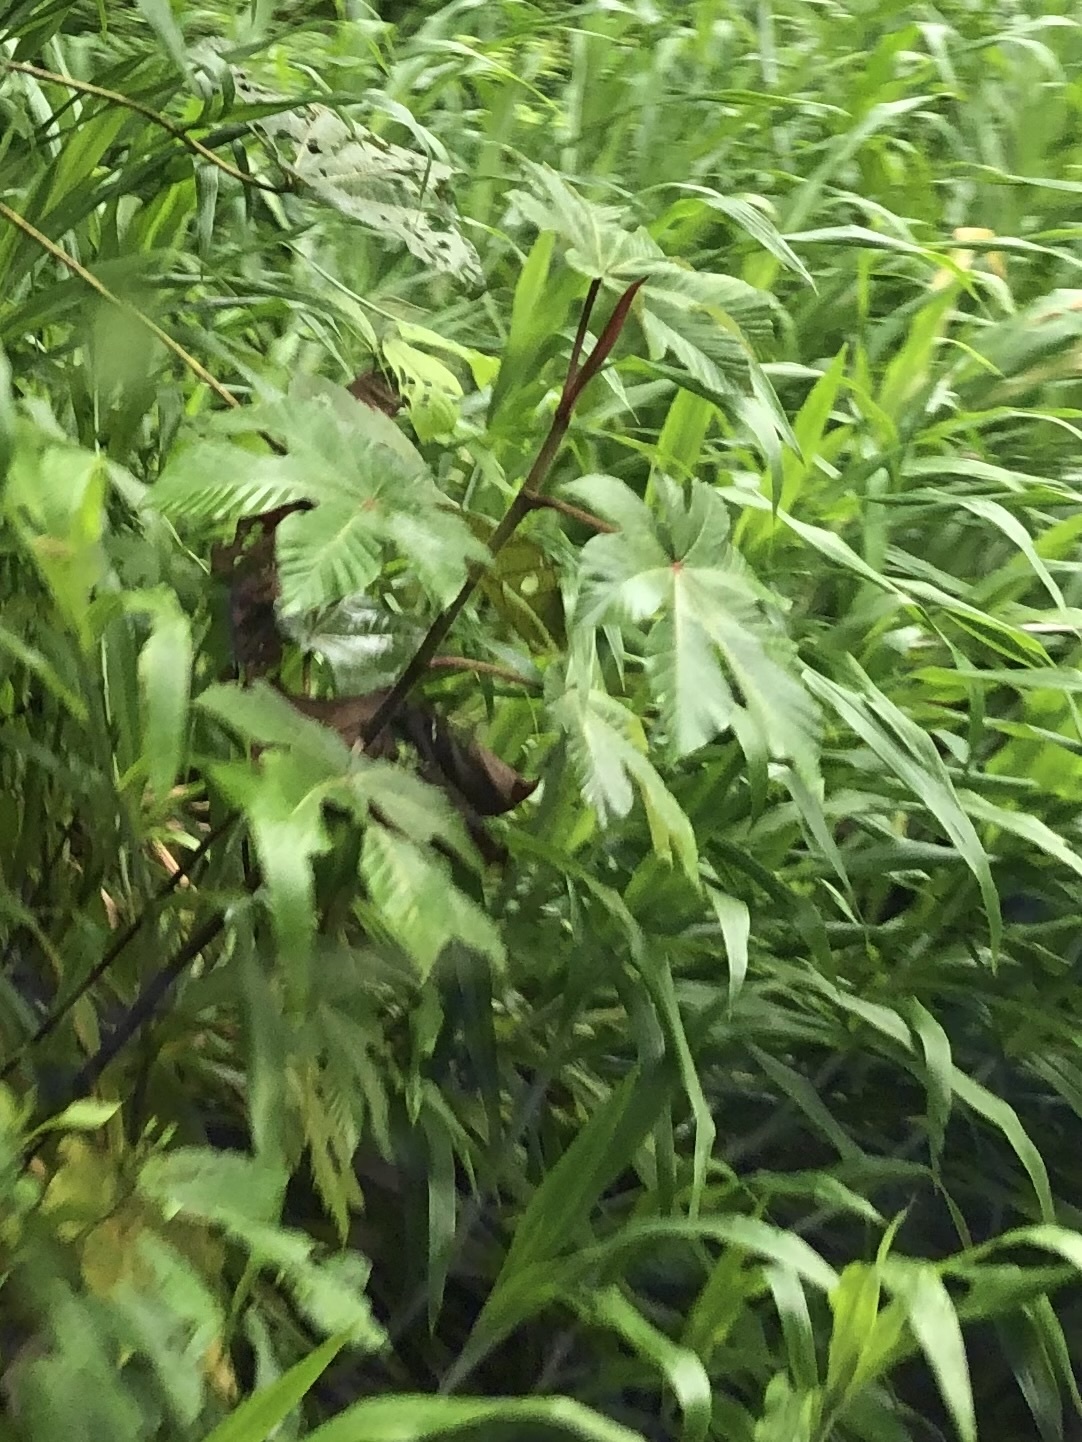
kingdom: Plantae
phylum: Tracheophyta
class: Magnoliopsida
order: Malpighiales
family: Euphorbiaceae
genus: Ricinus
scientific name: Ricinus communis
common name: Castor-oil-plant
